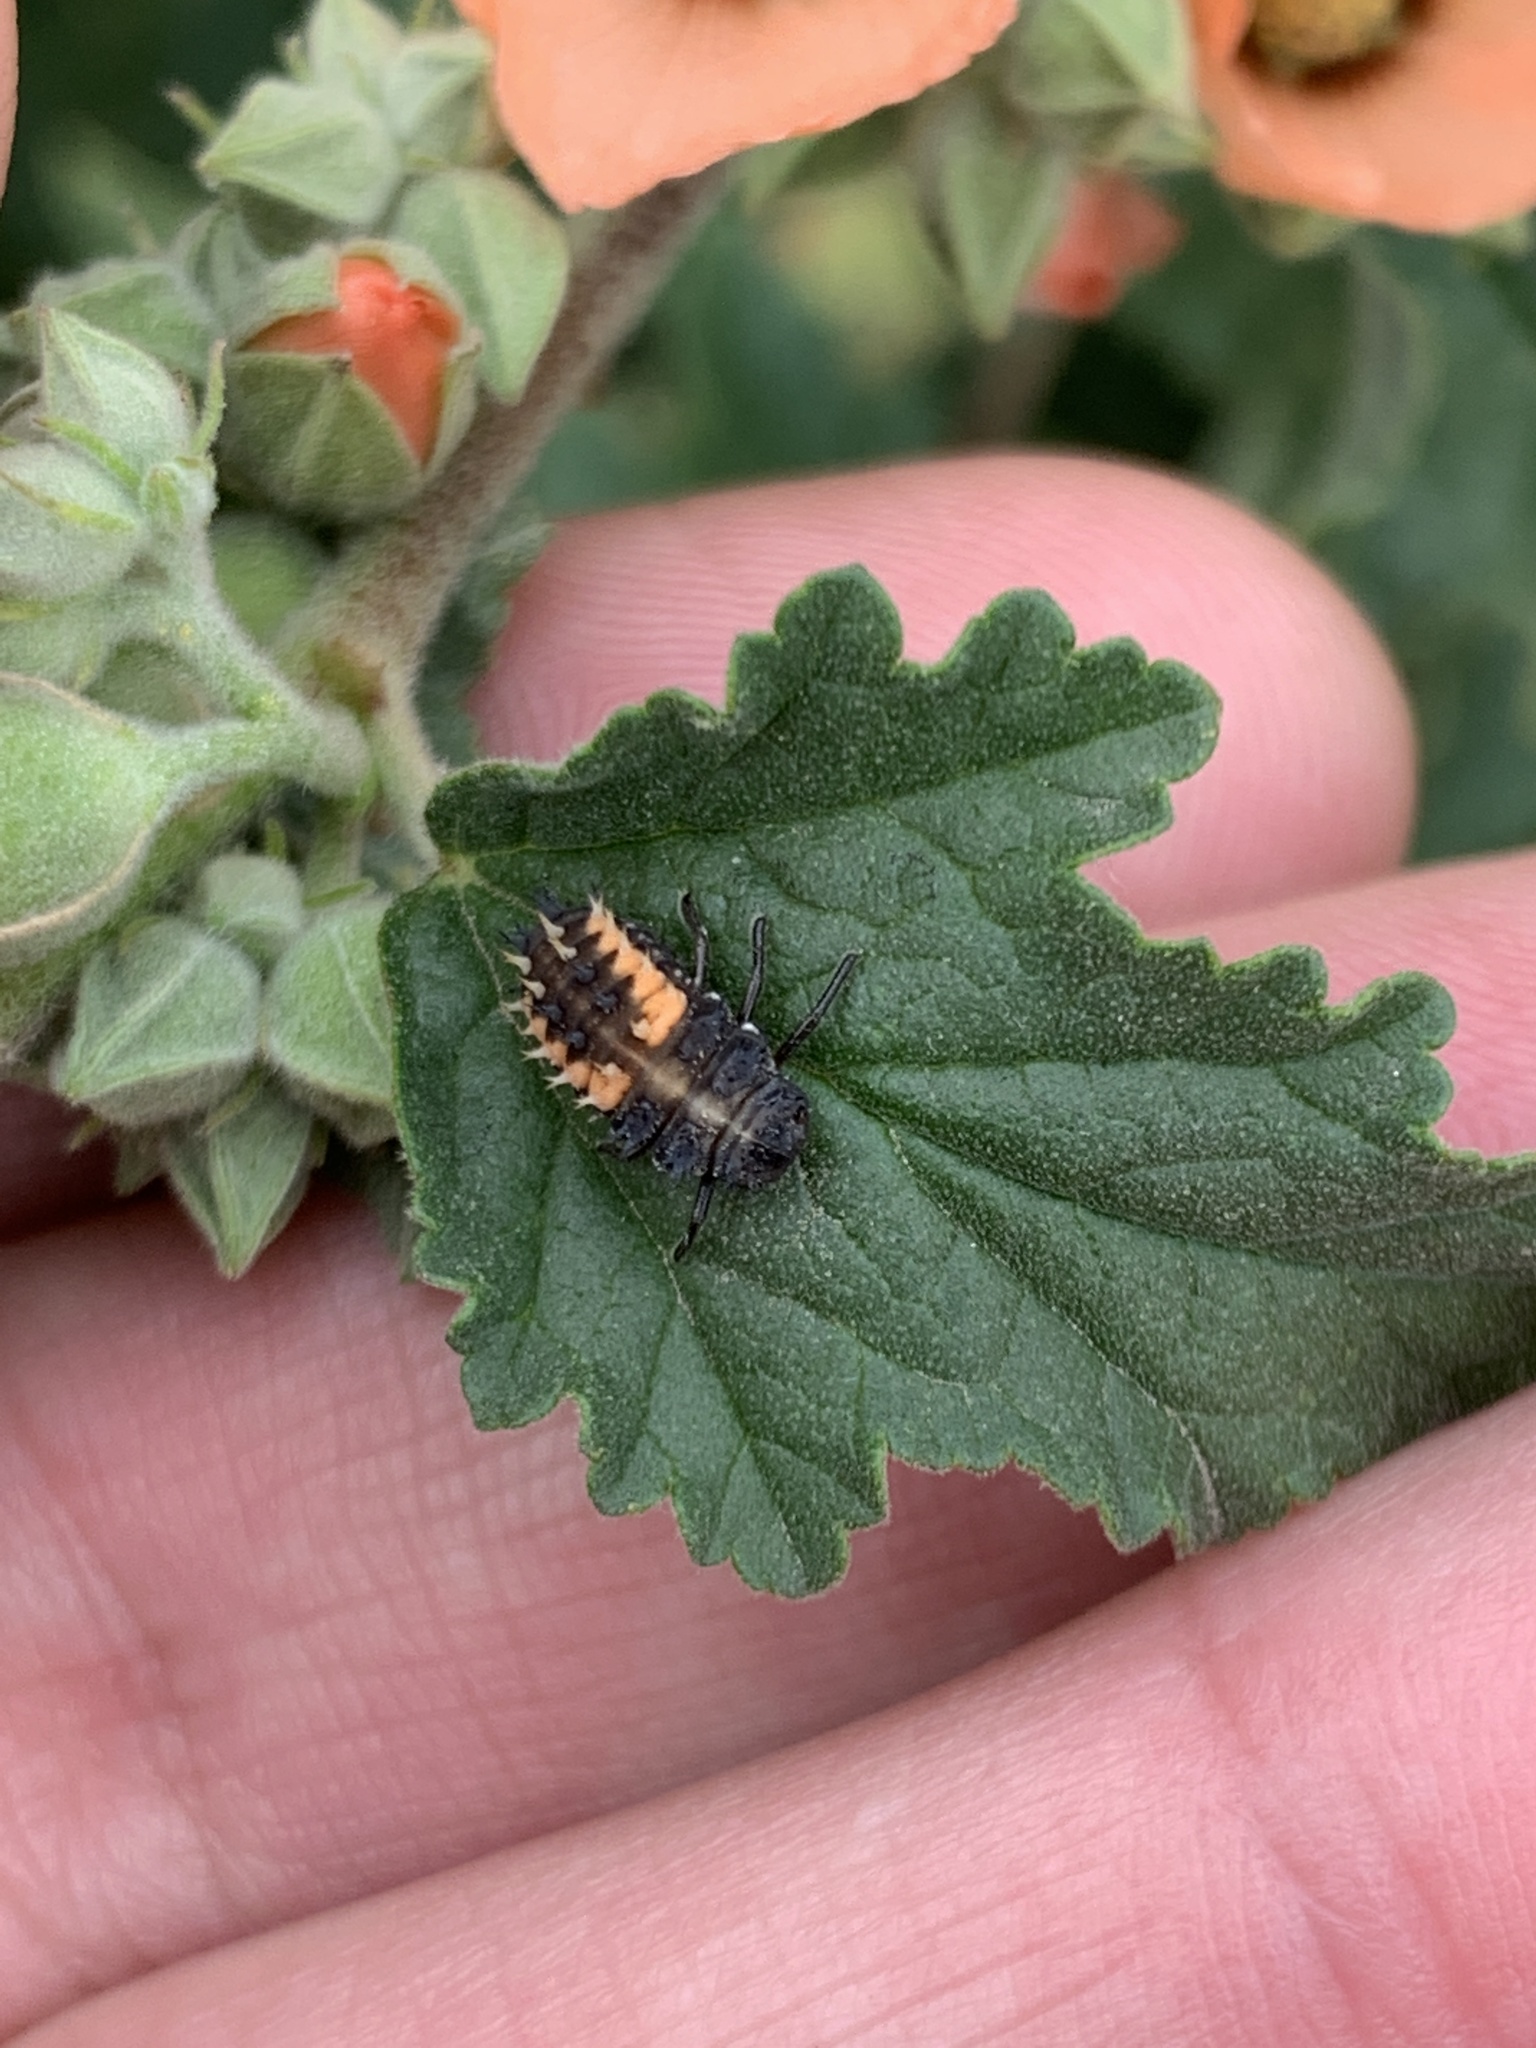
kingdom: Animalia
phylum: Arthropoda
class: Insecta
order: Coleoptera
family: Coccinellidae
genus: Harmonia
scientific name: Harmonia axyridis
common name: Harlequin ladybird
